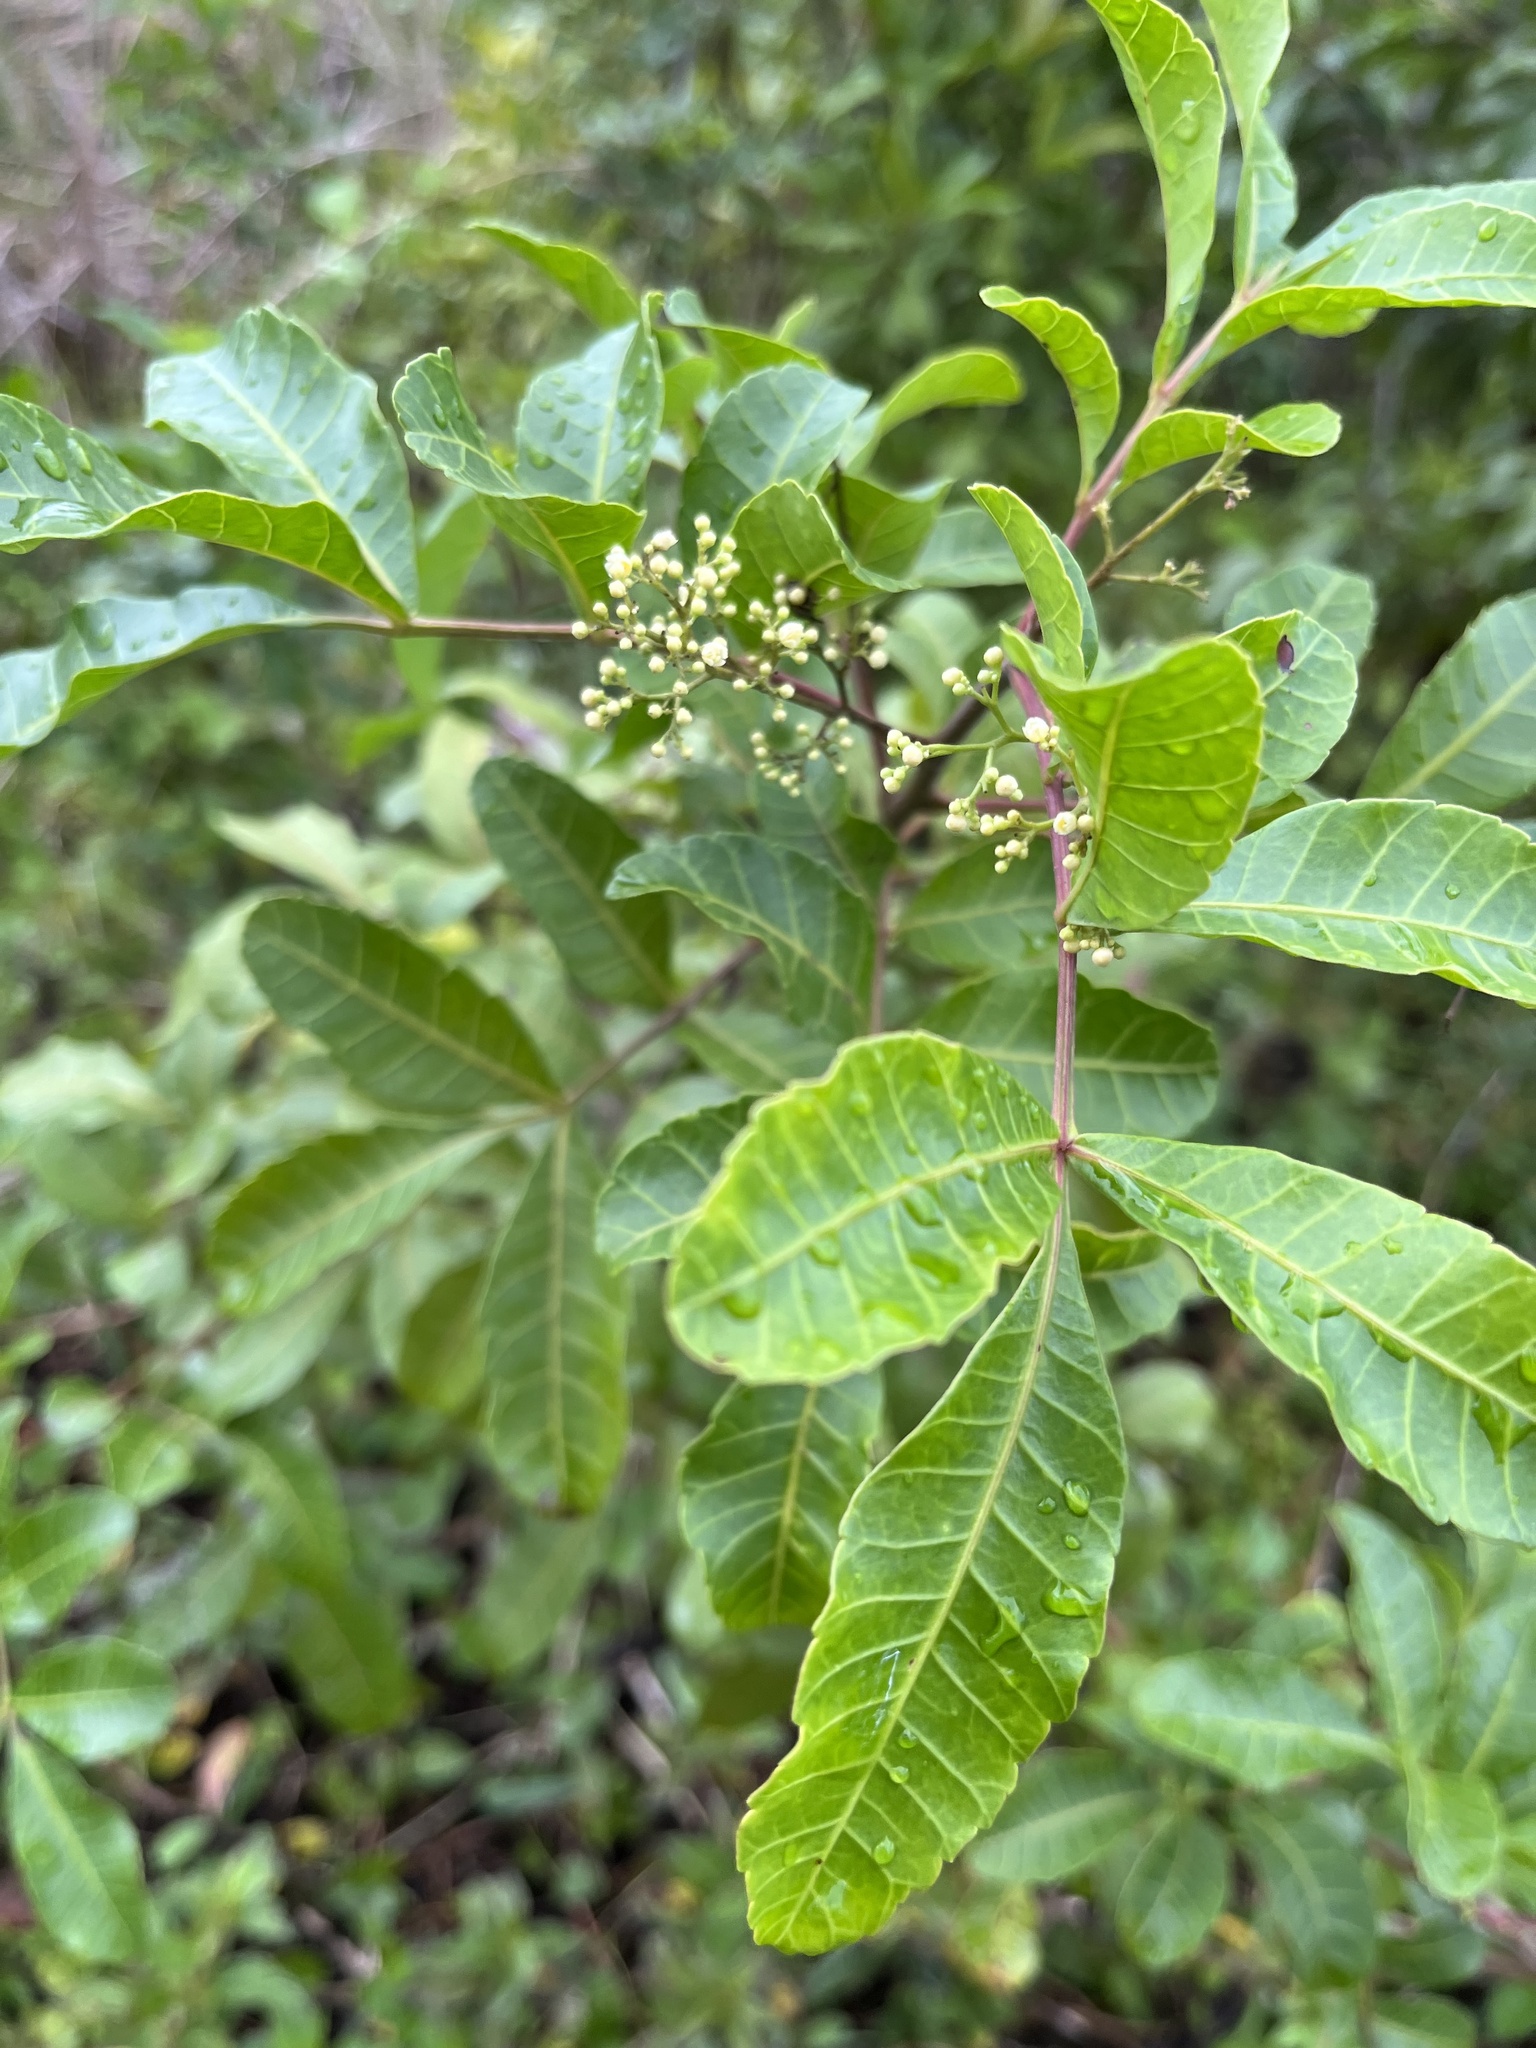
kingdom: Plantae
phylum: Tracheophyta
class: Magnoliopsida
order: Sapindales
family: Anacardiaceae
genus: Schinus
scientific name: Schinus terebinthifolia
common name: Brazilian peppertree
